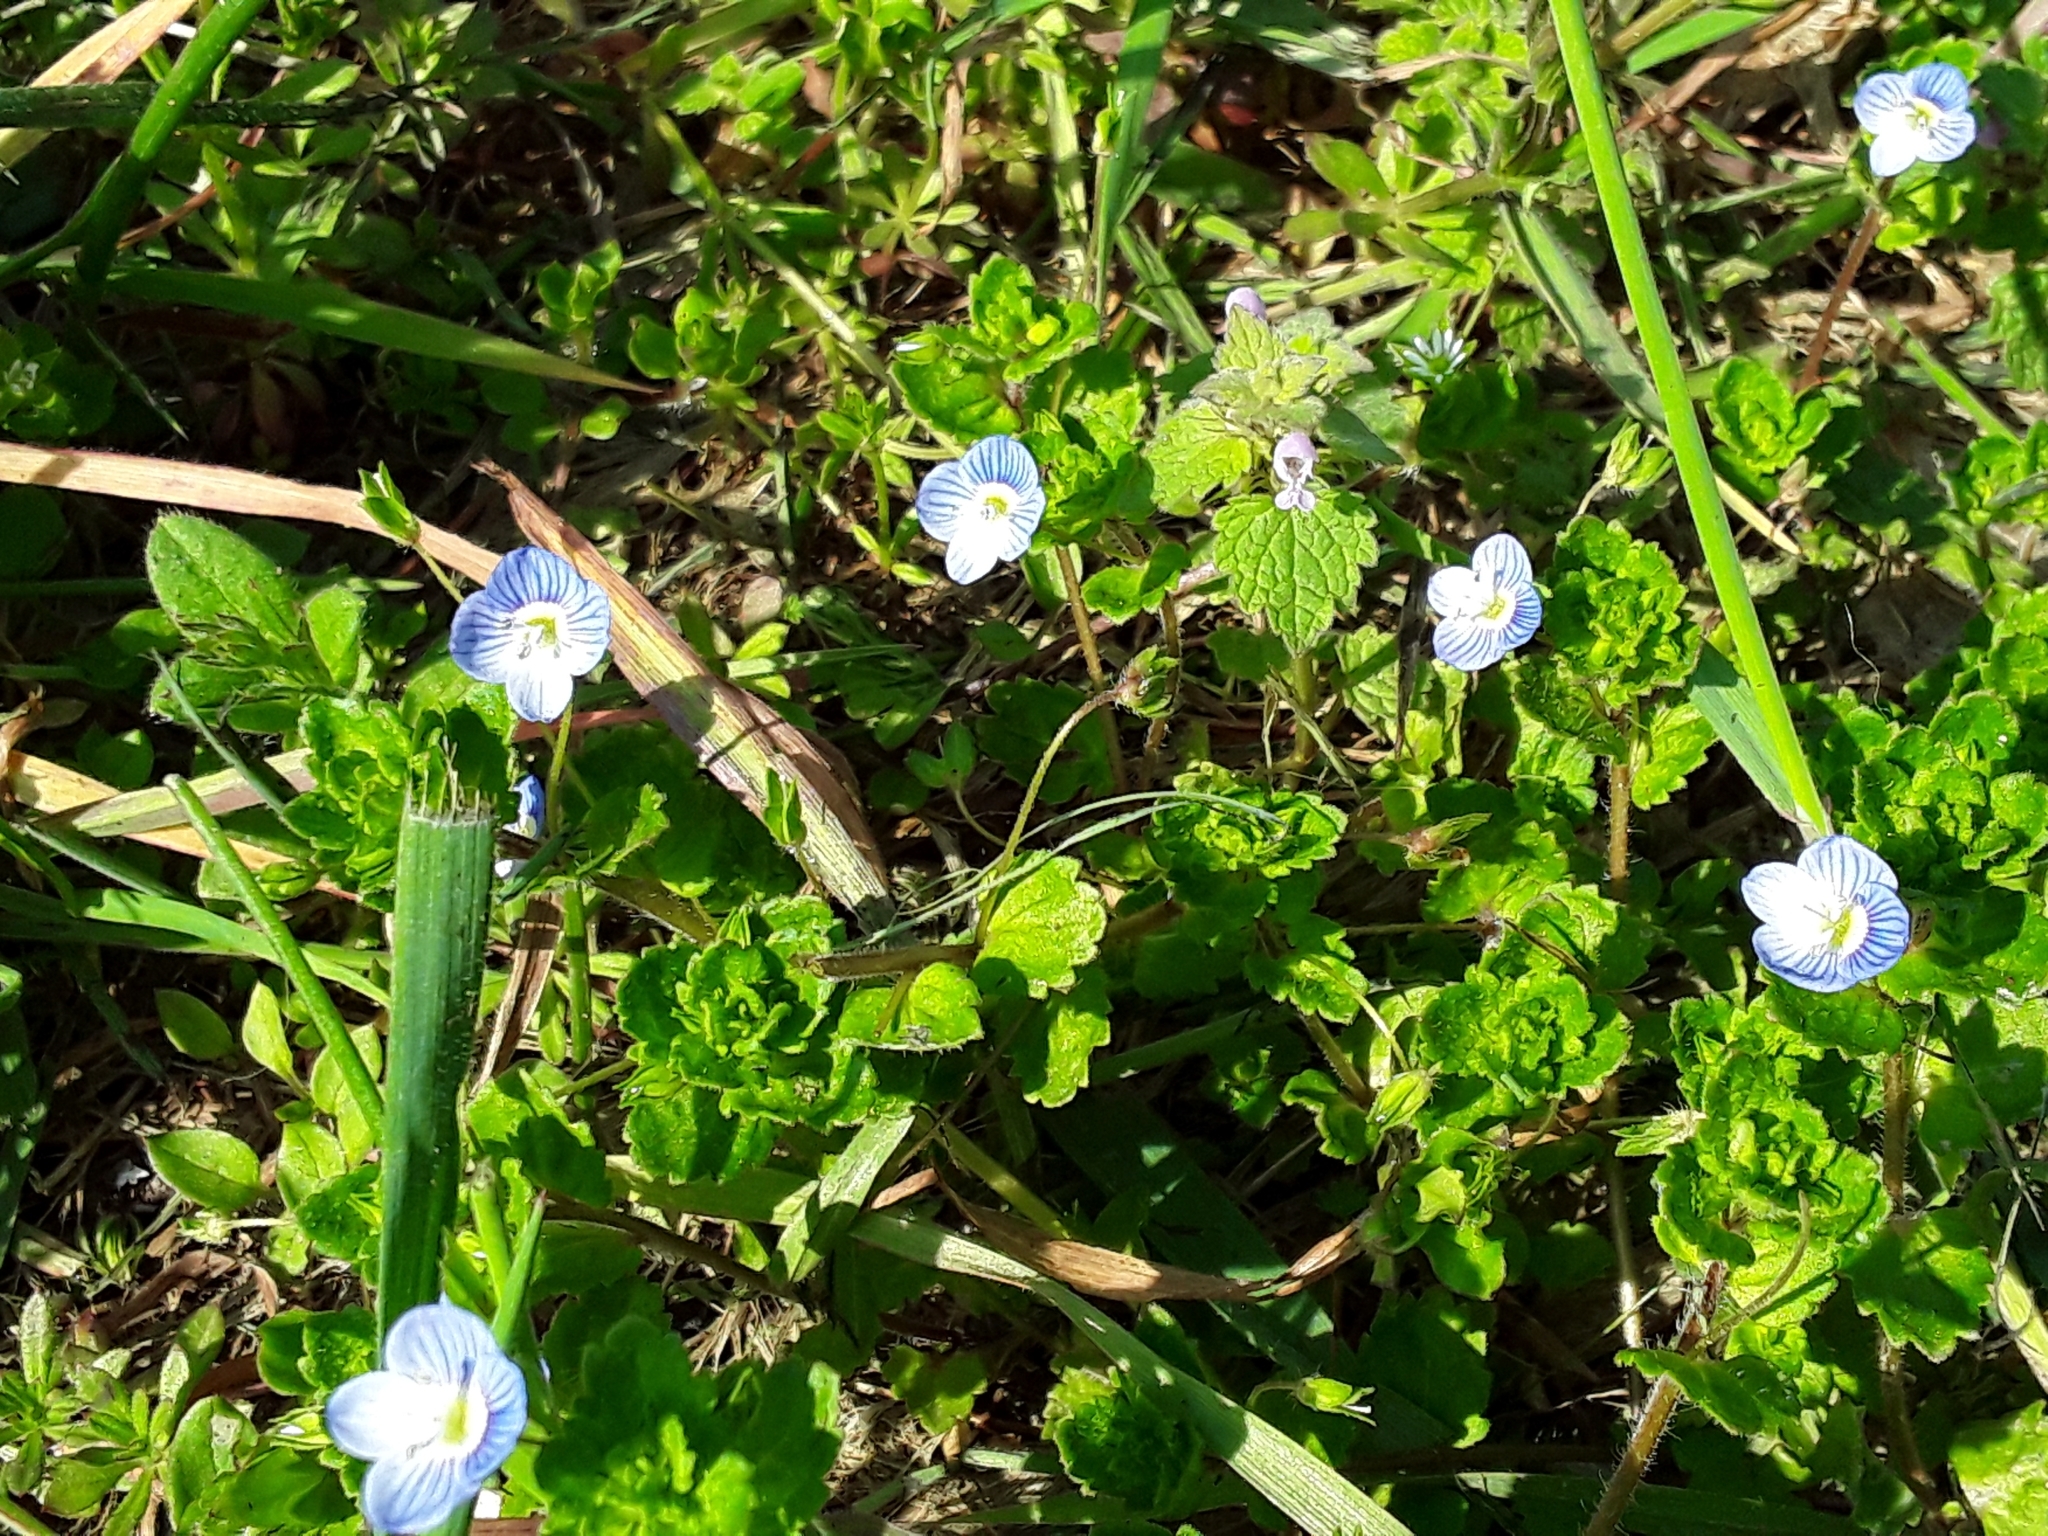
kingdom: Plantae
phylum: Tracheophyta
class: Magnoliopsida
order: Lamiales
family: Plantaginaceae
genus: Veronica
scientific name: Veronica persica
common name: Common field-speedwell
